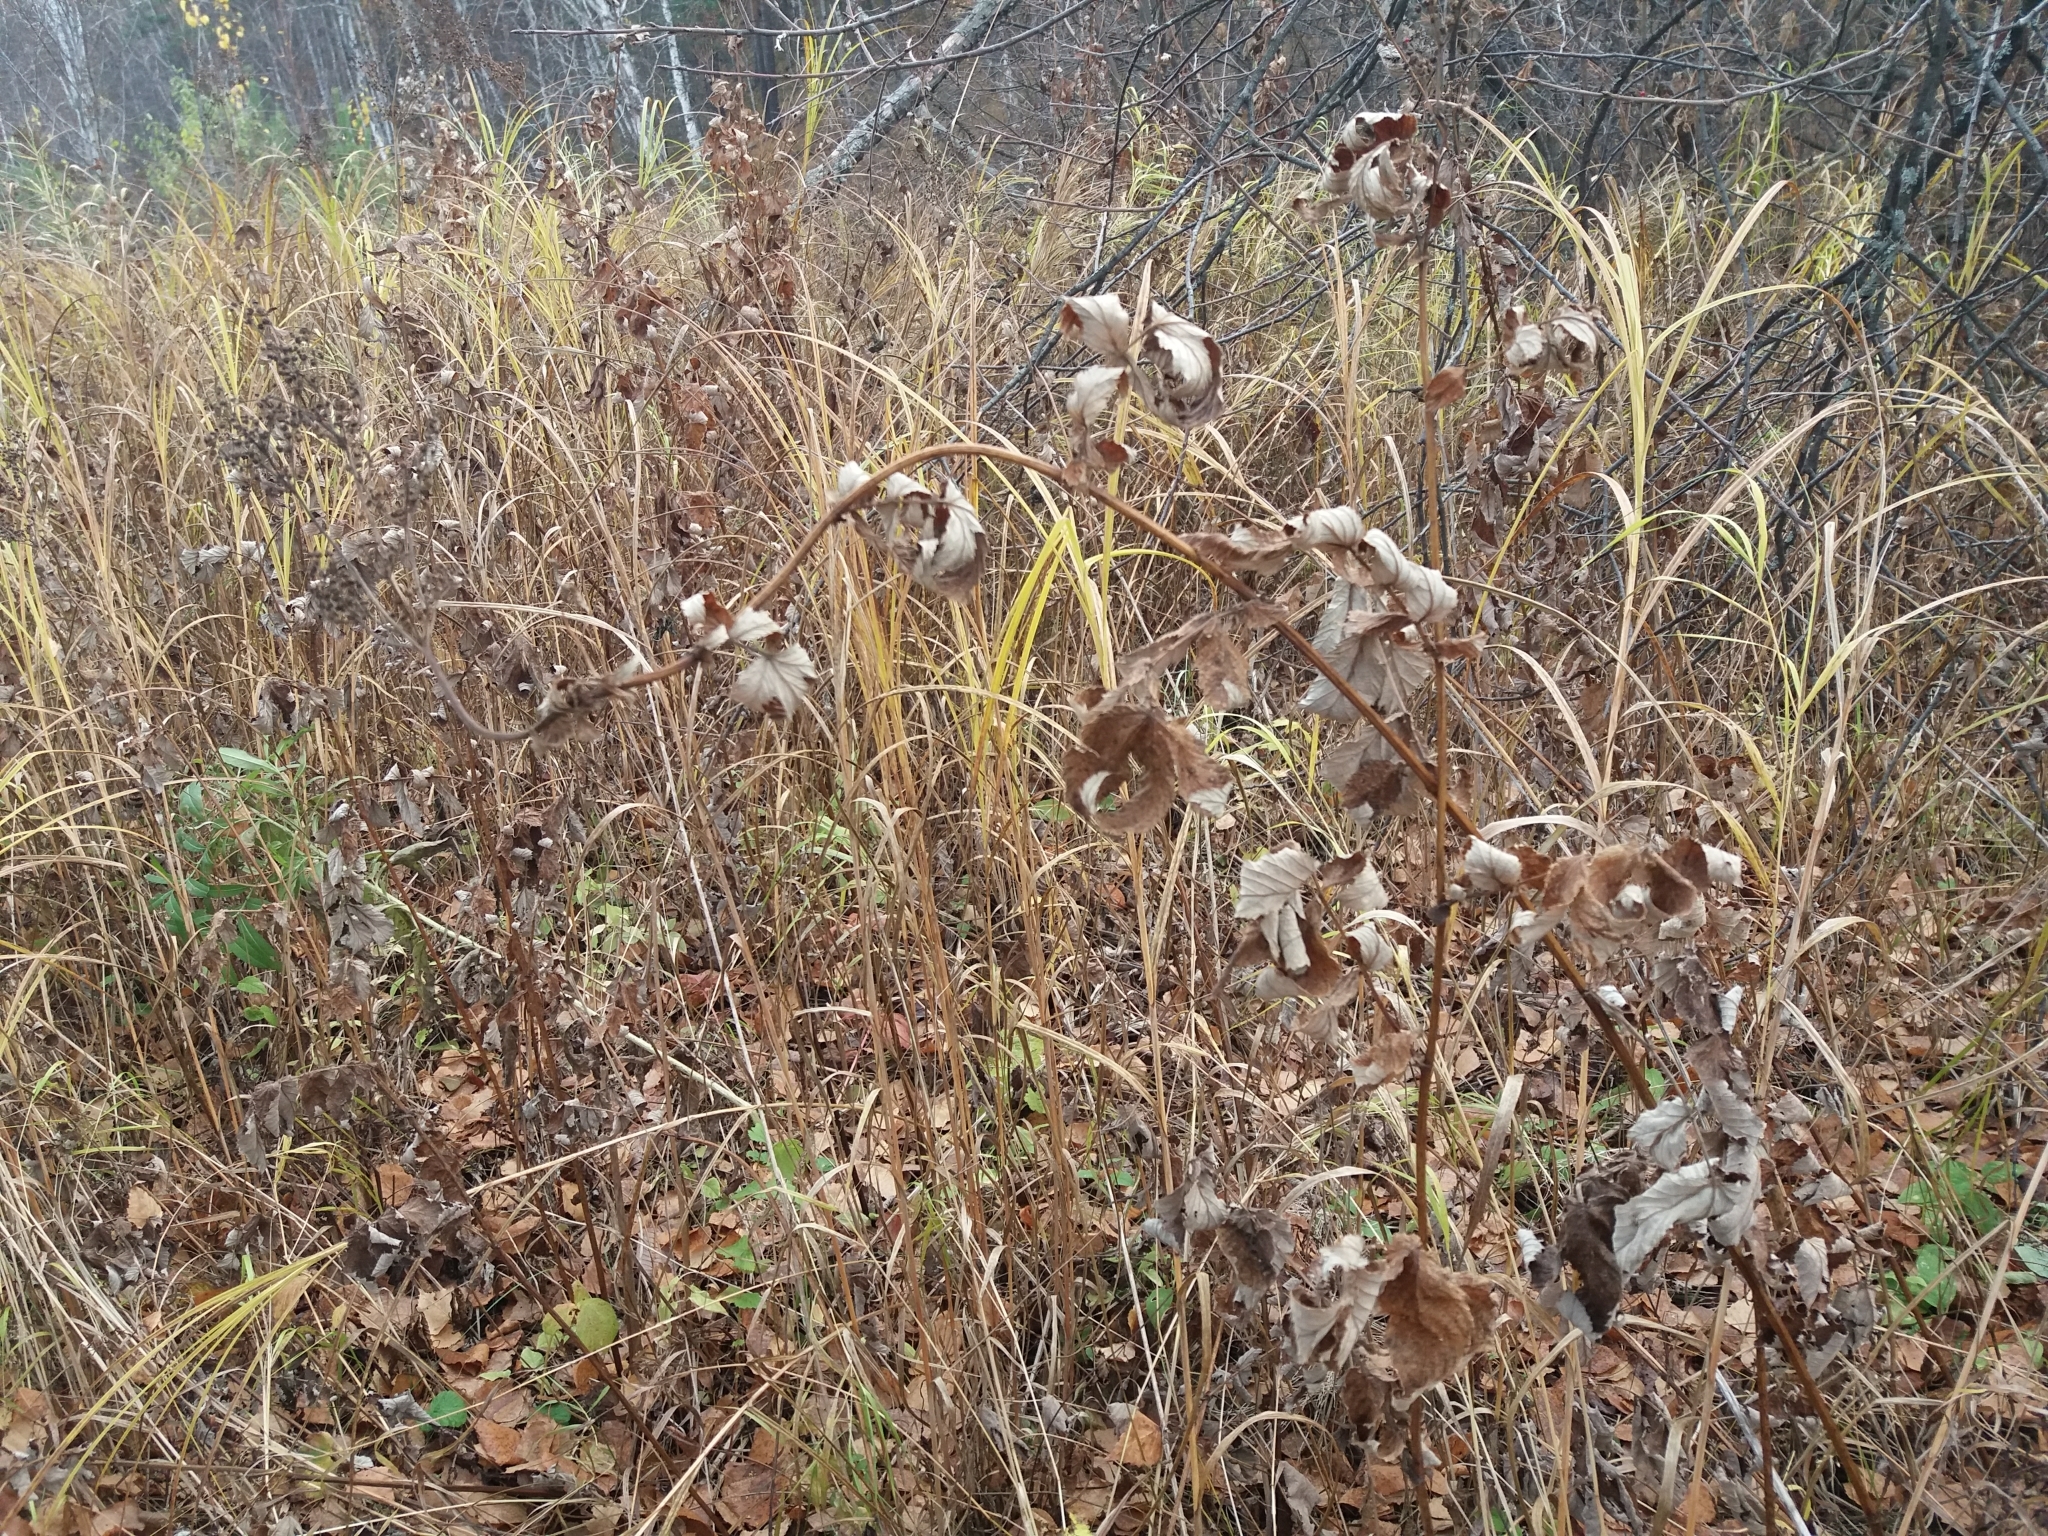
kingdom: Plantae
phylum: Tracheophyta
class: Magnoliopsida
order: Rosales
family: Rosaceae
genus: Filipendula
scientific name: Filipendula ulmaria
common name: Meadowsweet
